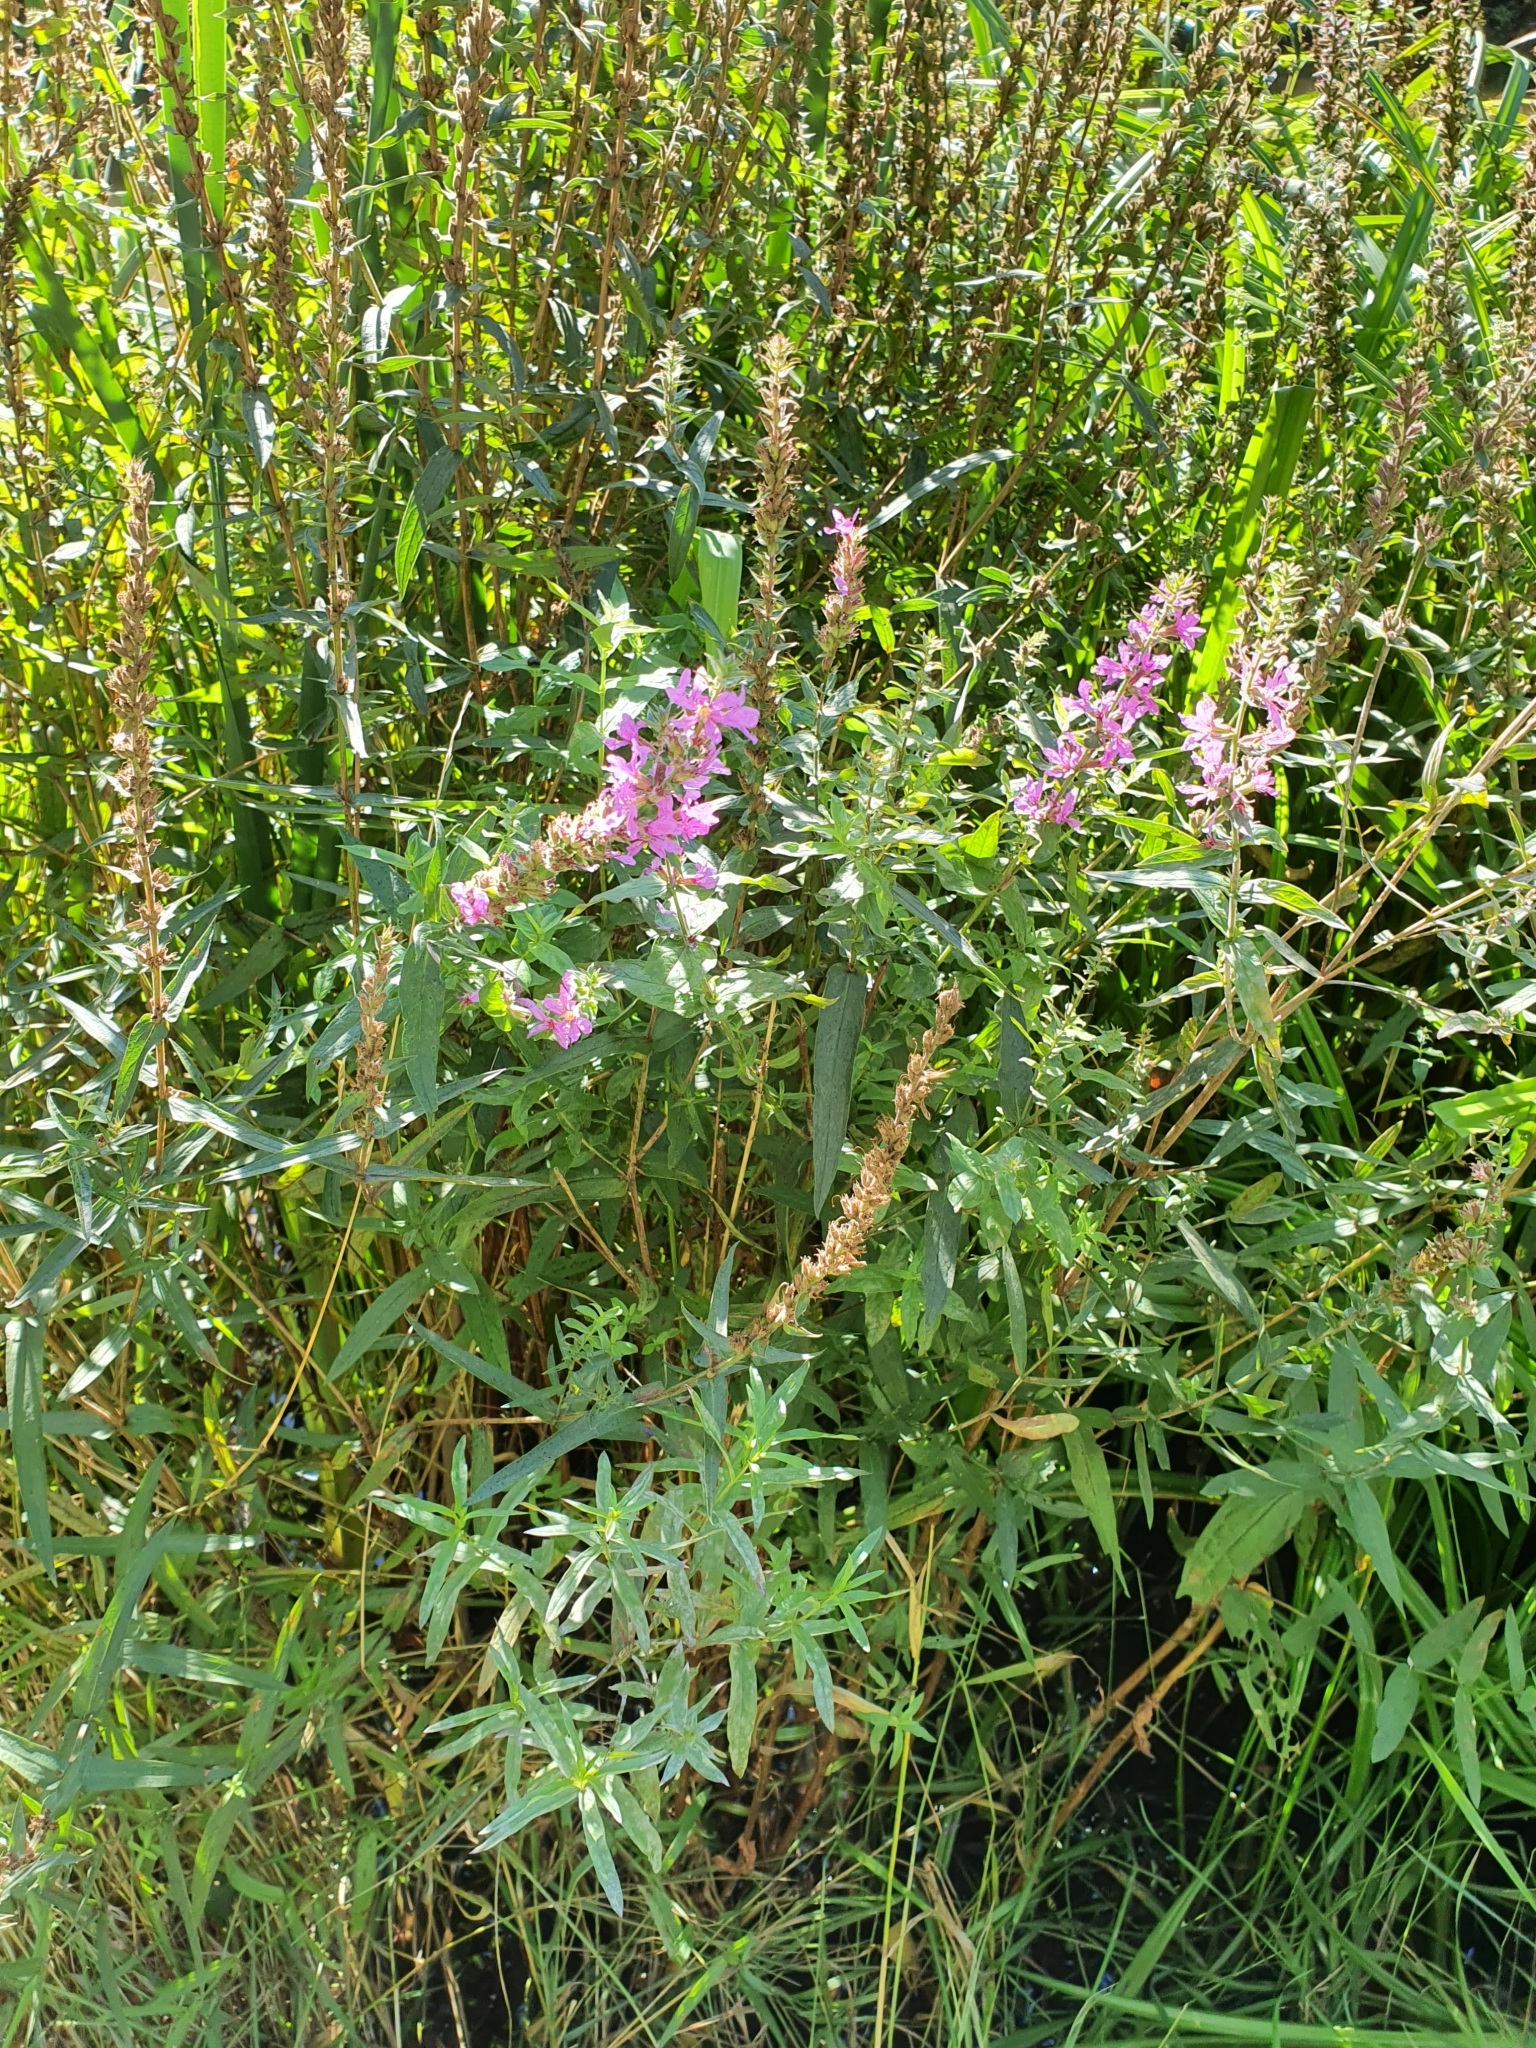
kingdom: Plantae
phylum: Tracheophyta
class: Magnoliopsida
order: Myrtales
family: Lythraceae
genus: Lythrum
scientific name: Lythrum salicaria
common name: Purple loosestrife
